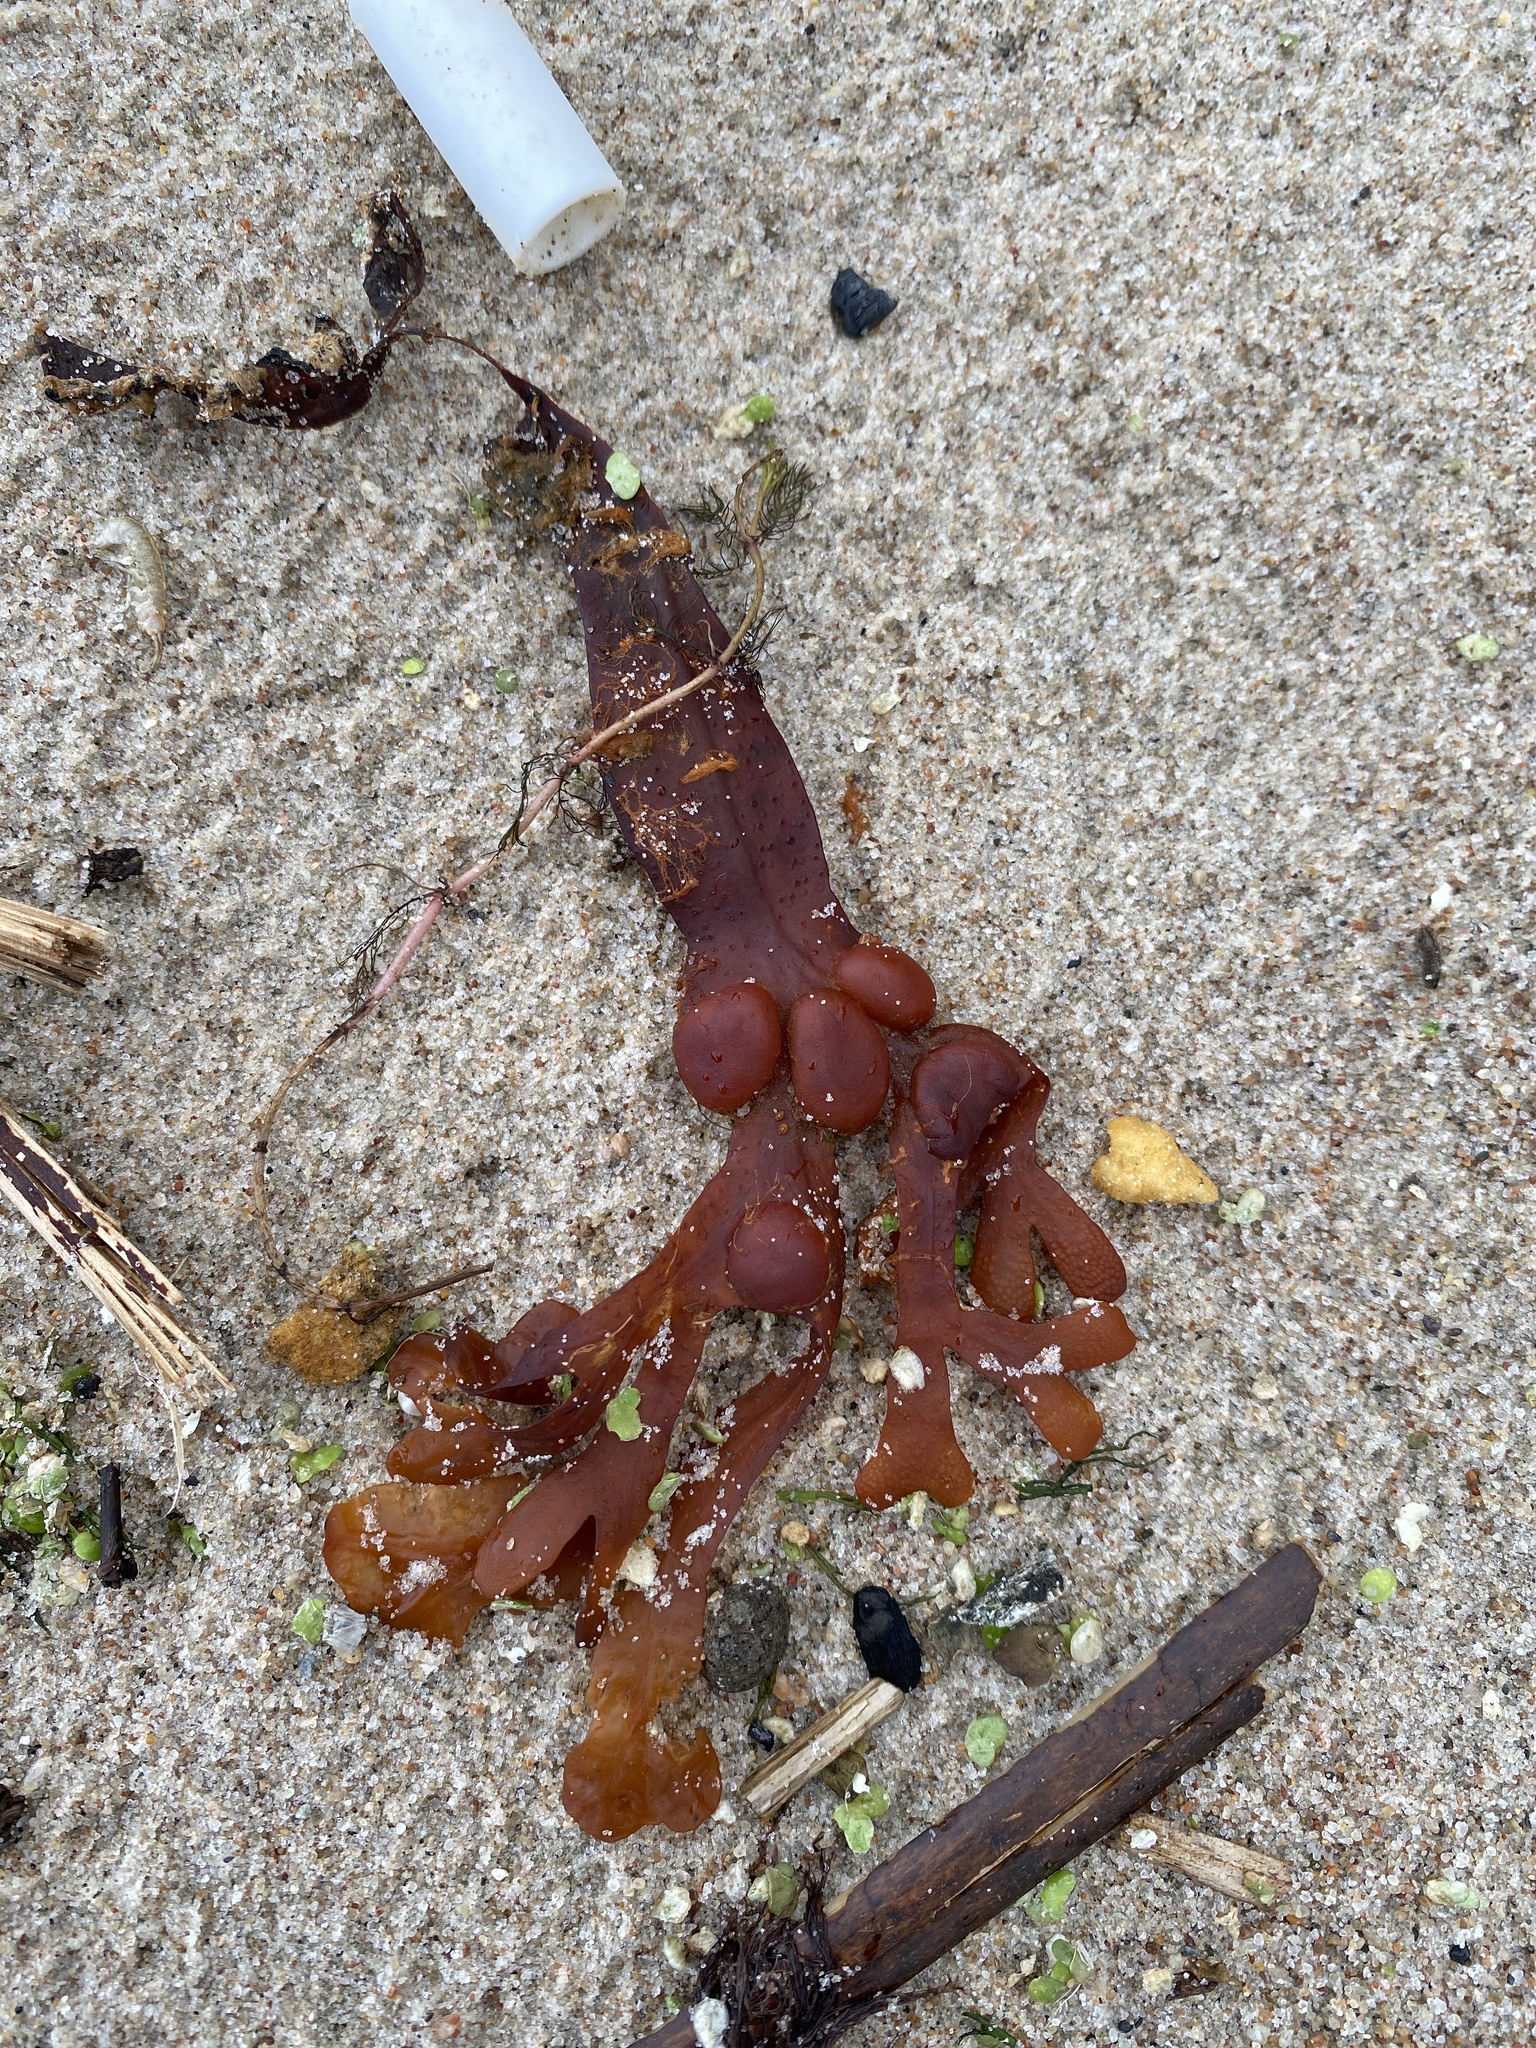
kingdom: Chromista
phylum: Ochrophyta
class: Phaeophyceae
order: Fucales
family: Fucaceae
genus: Fucus
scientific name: Fucus vesiculosus
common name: Bladder wrack
